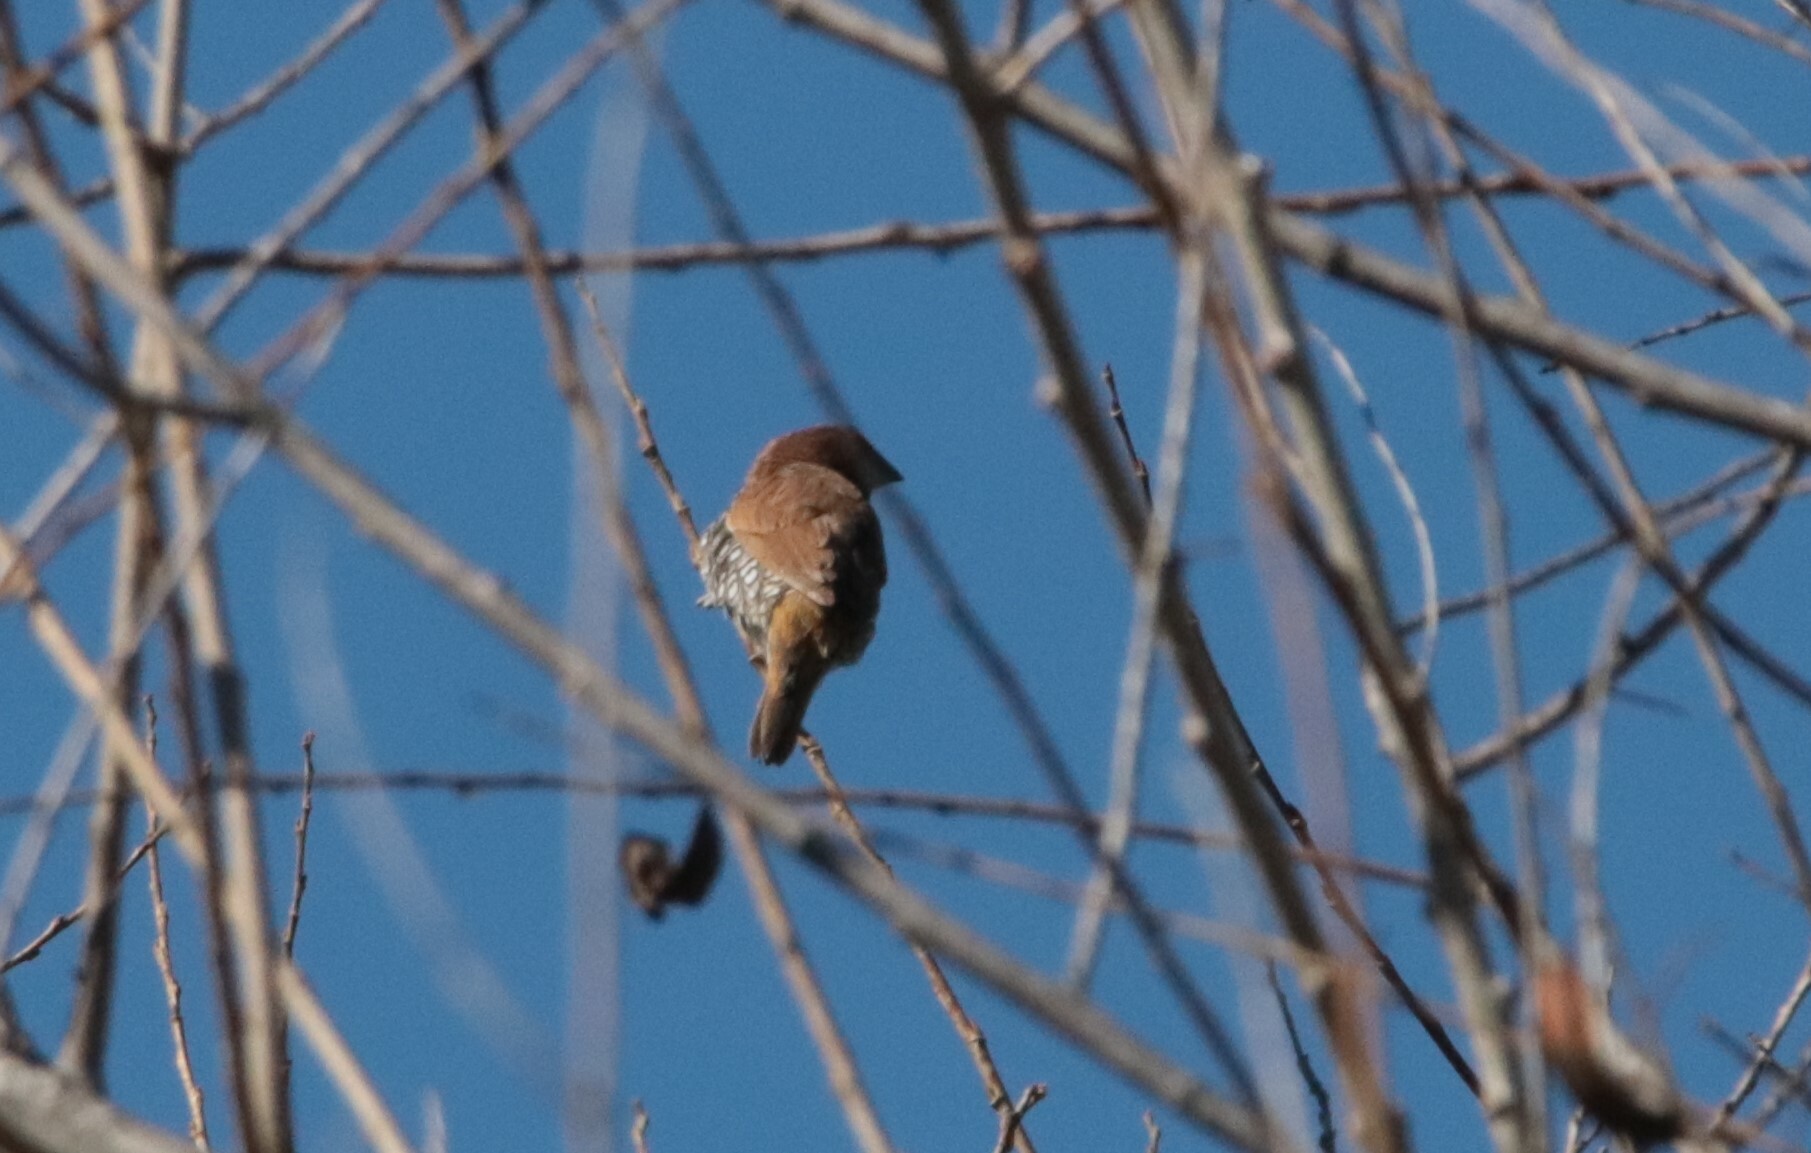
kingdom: Animalia
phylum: Chordata
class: Aves
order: Passeriformes
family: Estrildidae
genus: Lonchura
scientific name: Lonchura punctulata
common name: Scaly-breasted munia
